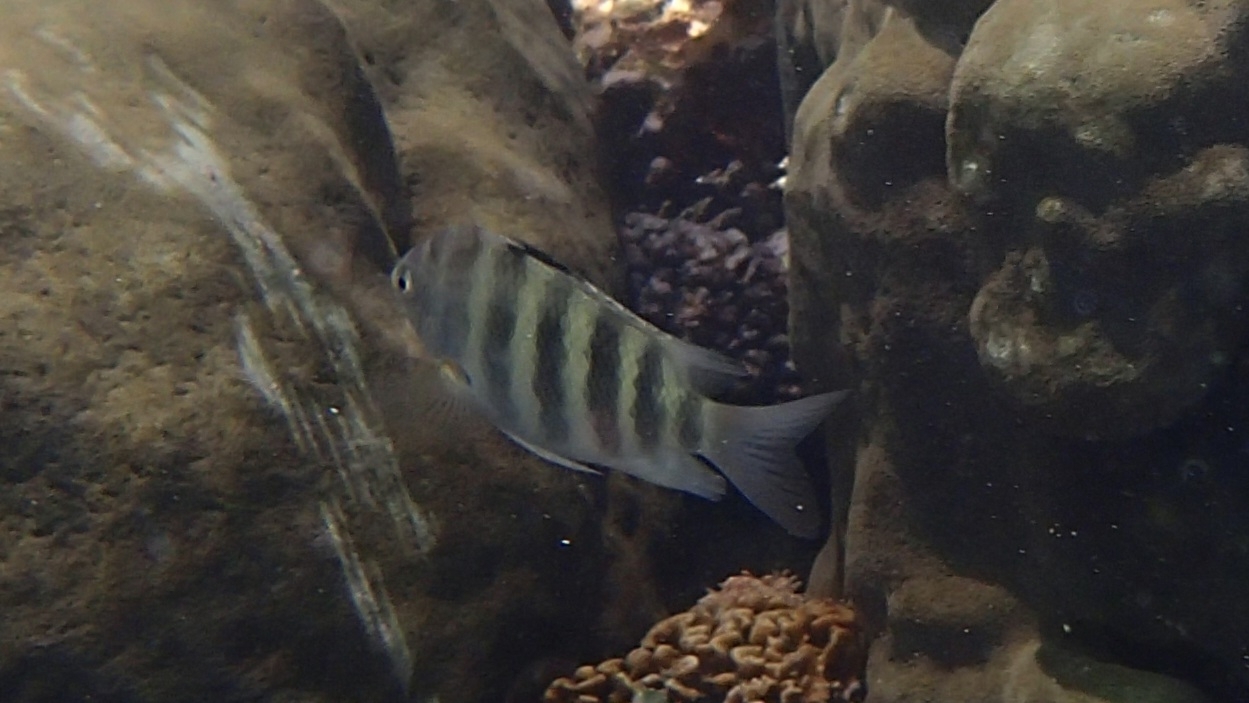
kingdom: Animalia
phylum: Chordata
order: Perciformes
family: Pomacentridae
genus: Abudefduf
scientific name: Abudefduf septemfasciatus
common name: Banded sergeant
